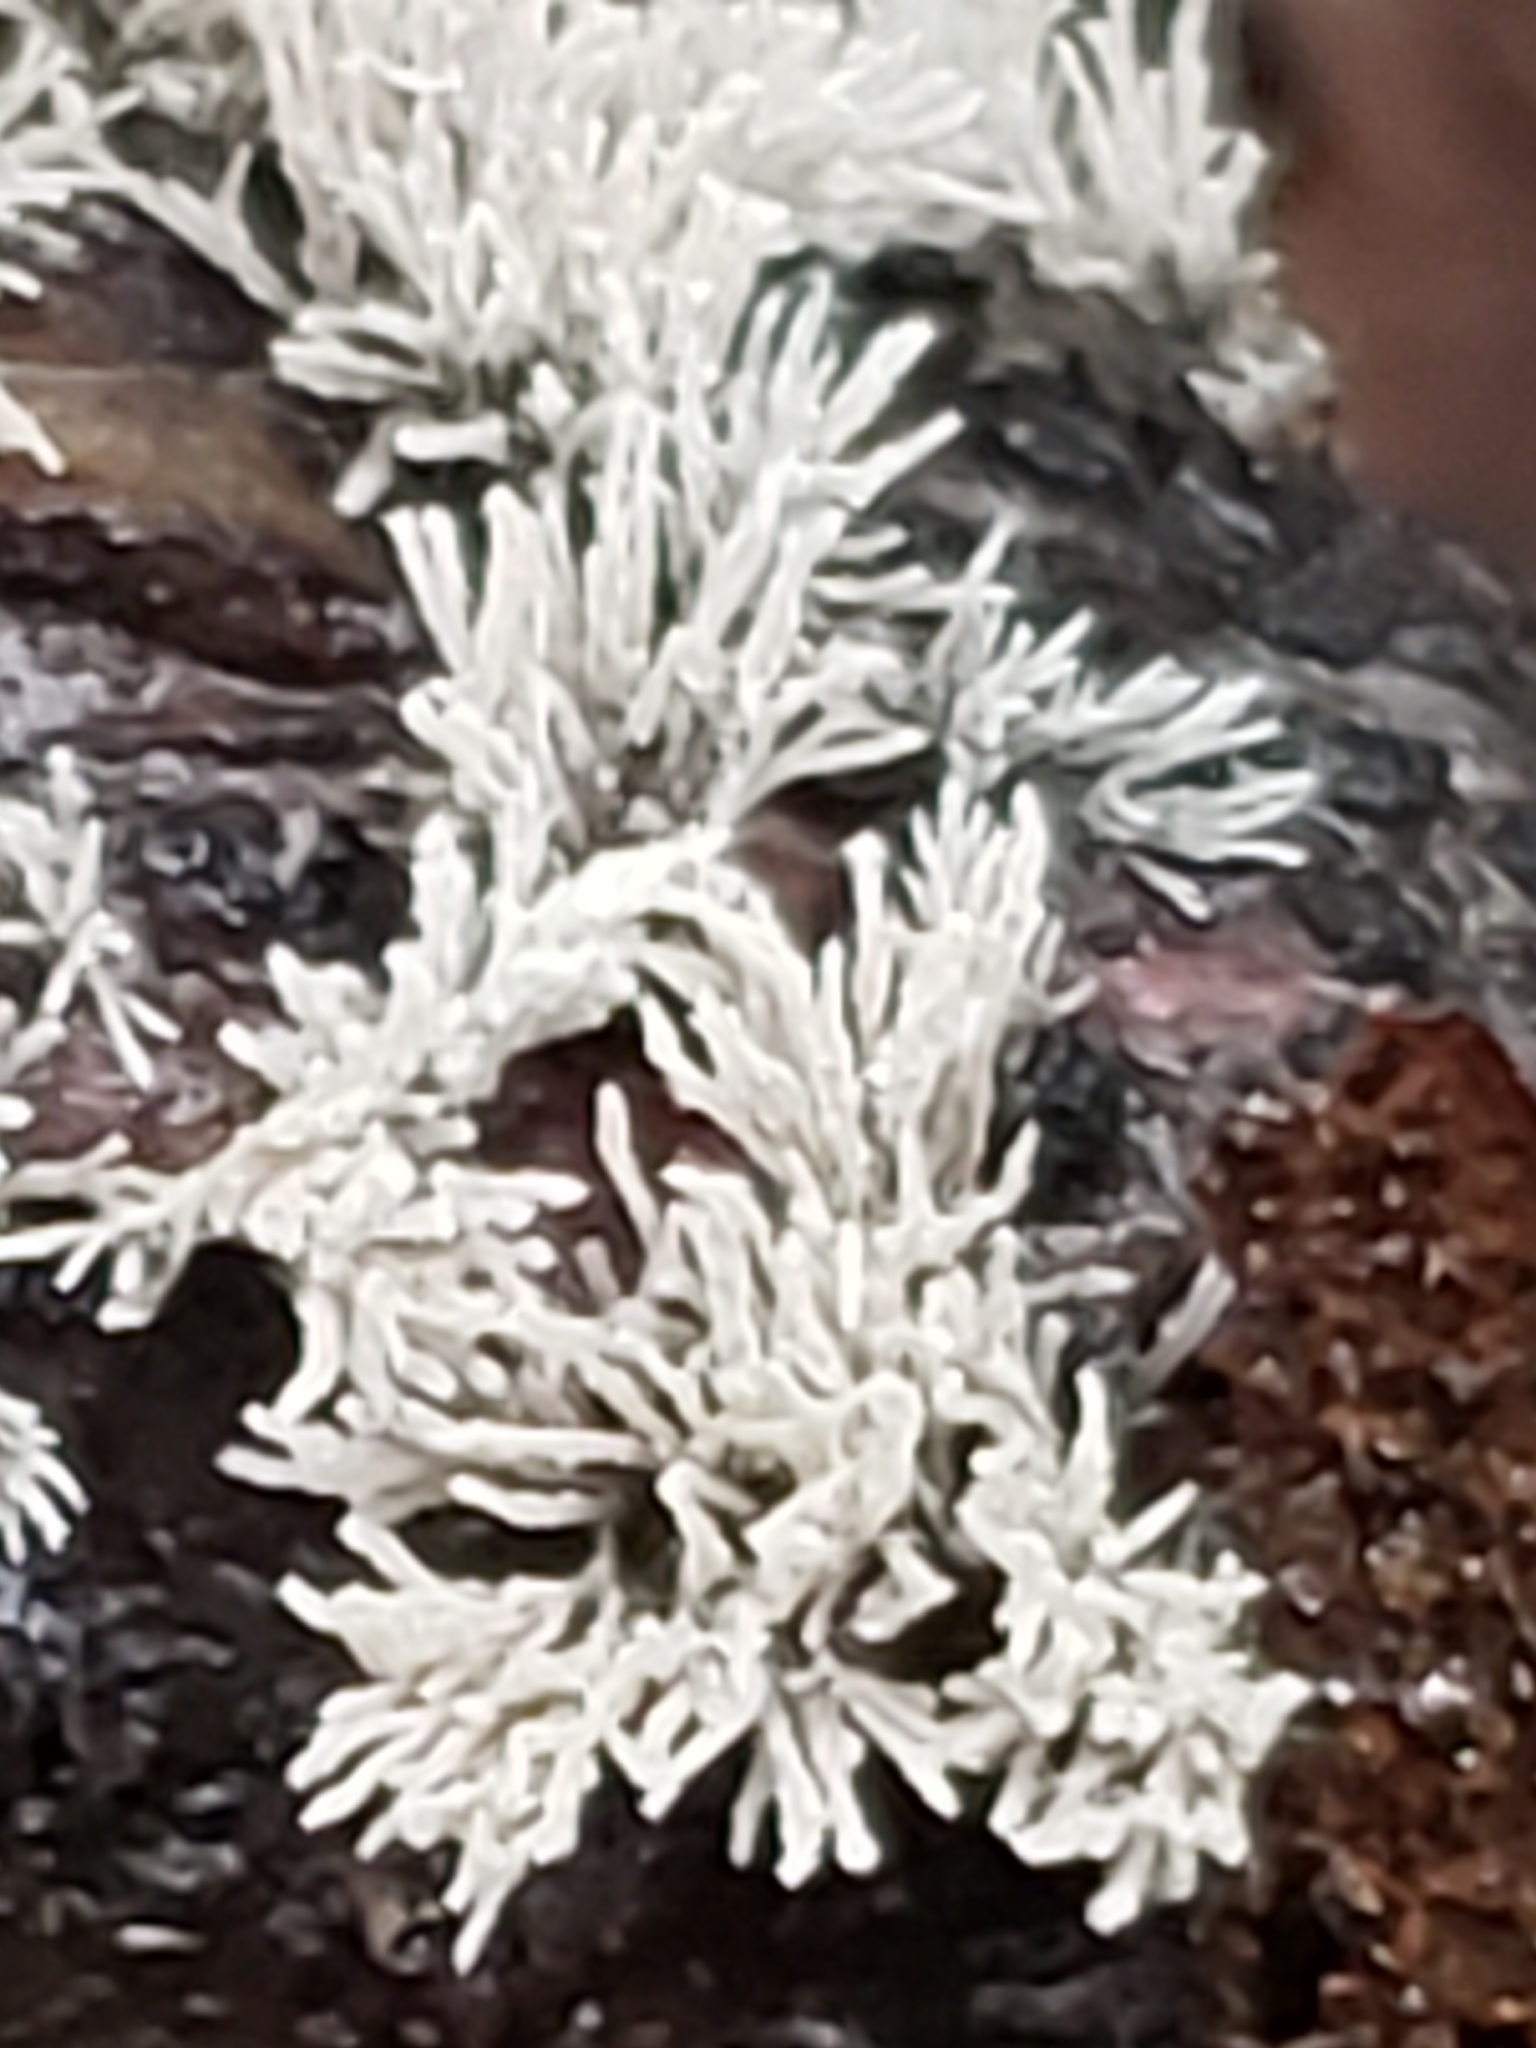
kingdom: Protozoa
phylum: Mycetozoa
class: Protosteliomycetes
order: Ceratiomyxales
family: Ceratiomyxaceae
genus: Ceratiomyxa
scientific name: Ceratiomyxa fruticulosa
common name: Honeycomb coral slime mold
